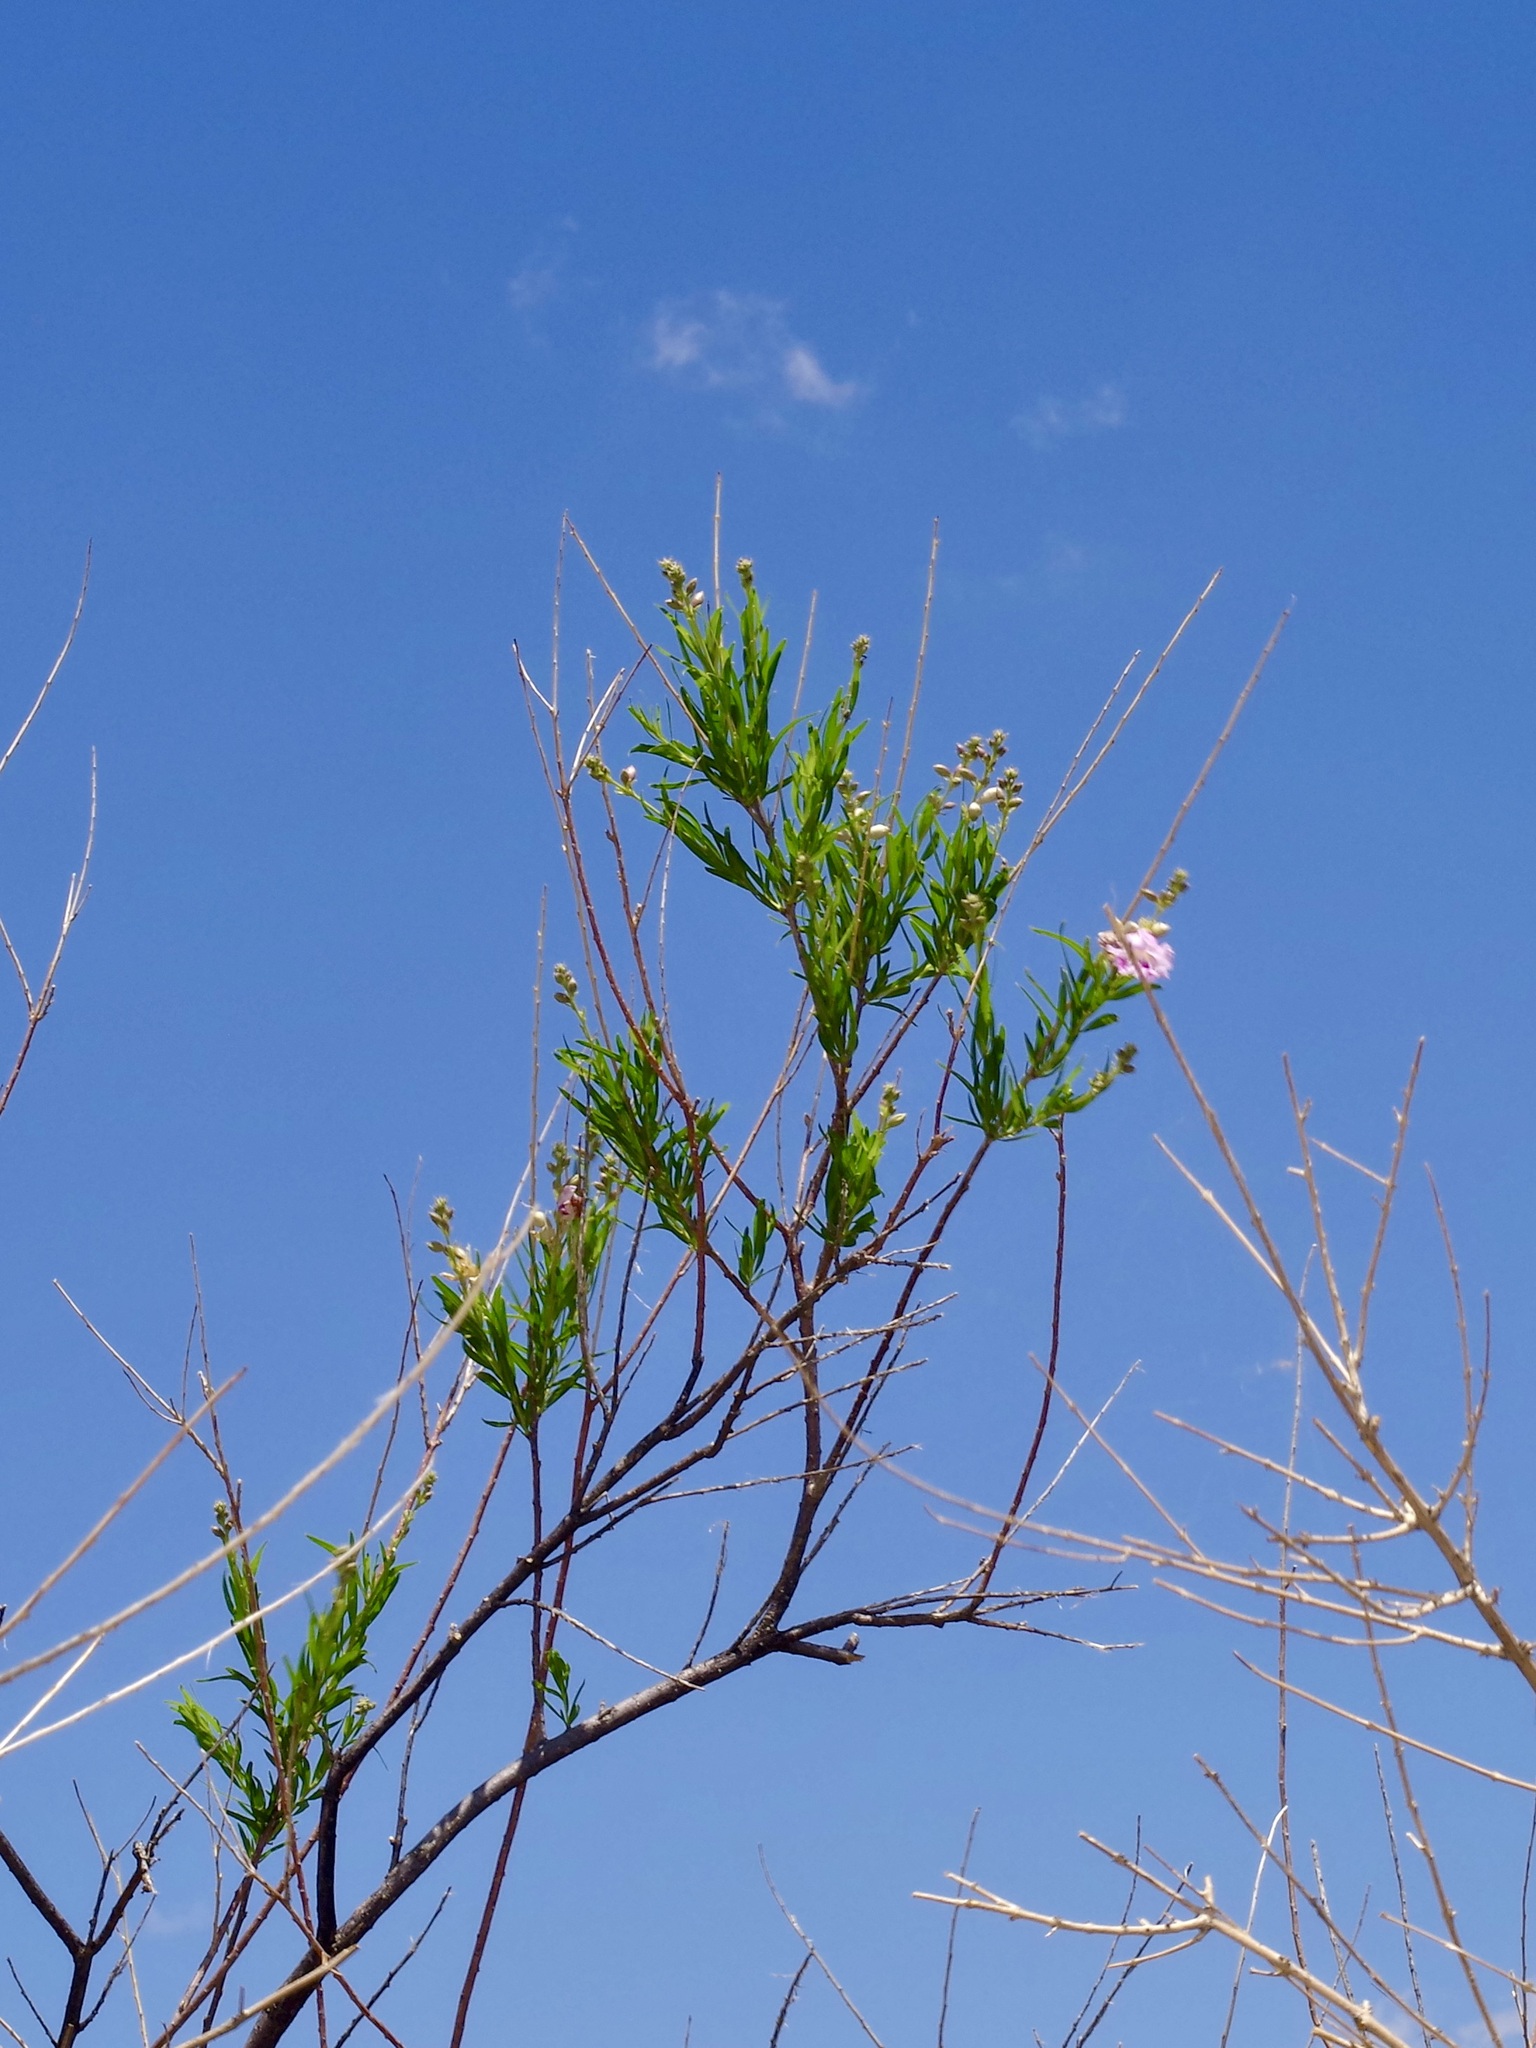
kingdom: Plantae
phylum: Tracheophyta
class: Magnoliopsida
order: Lamiales
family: Bignoniaceae
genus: Chilopsis
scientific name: Chilopsis linearis
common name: Desert-willow
